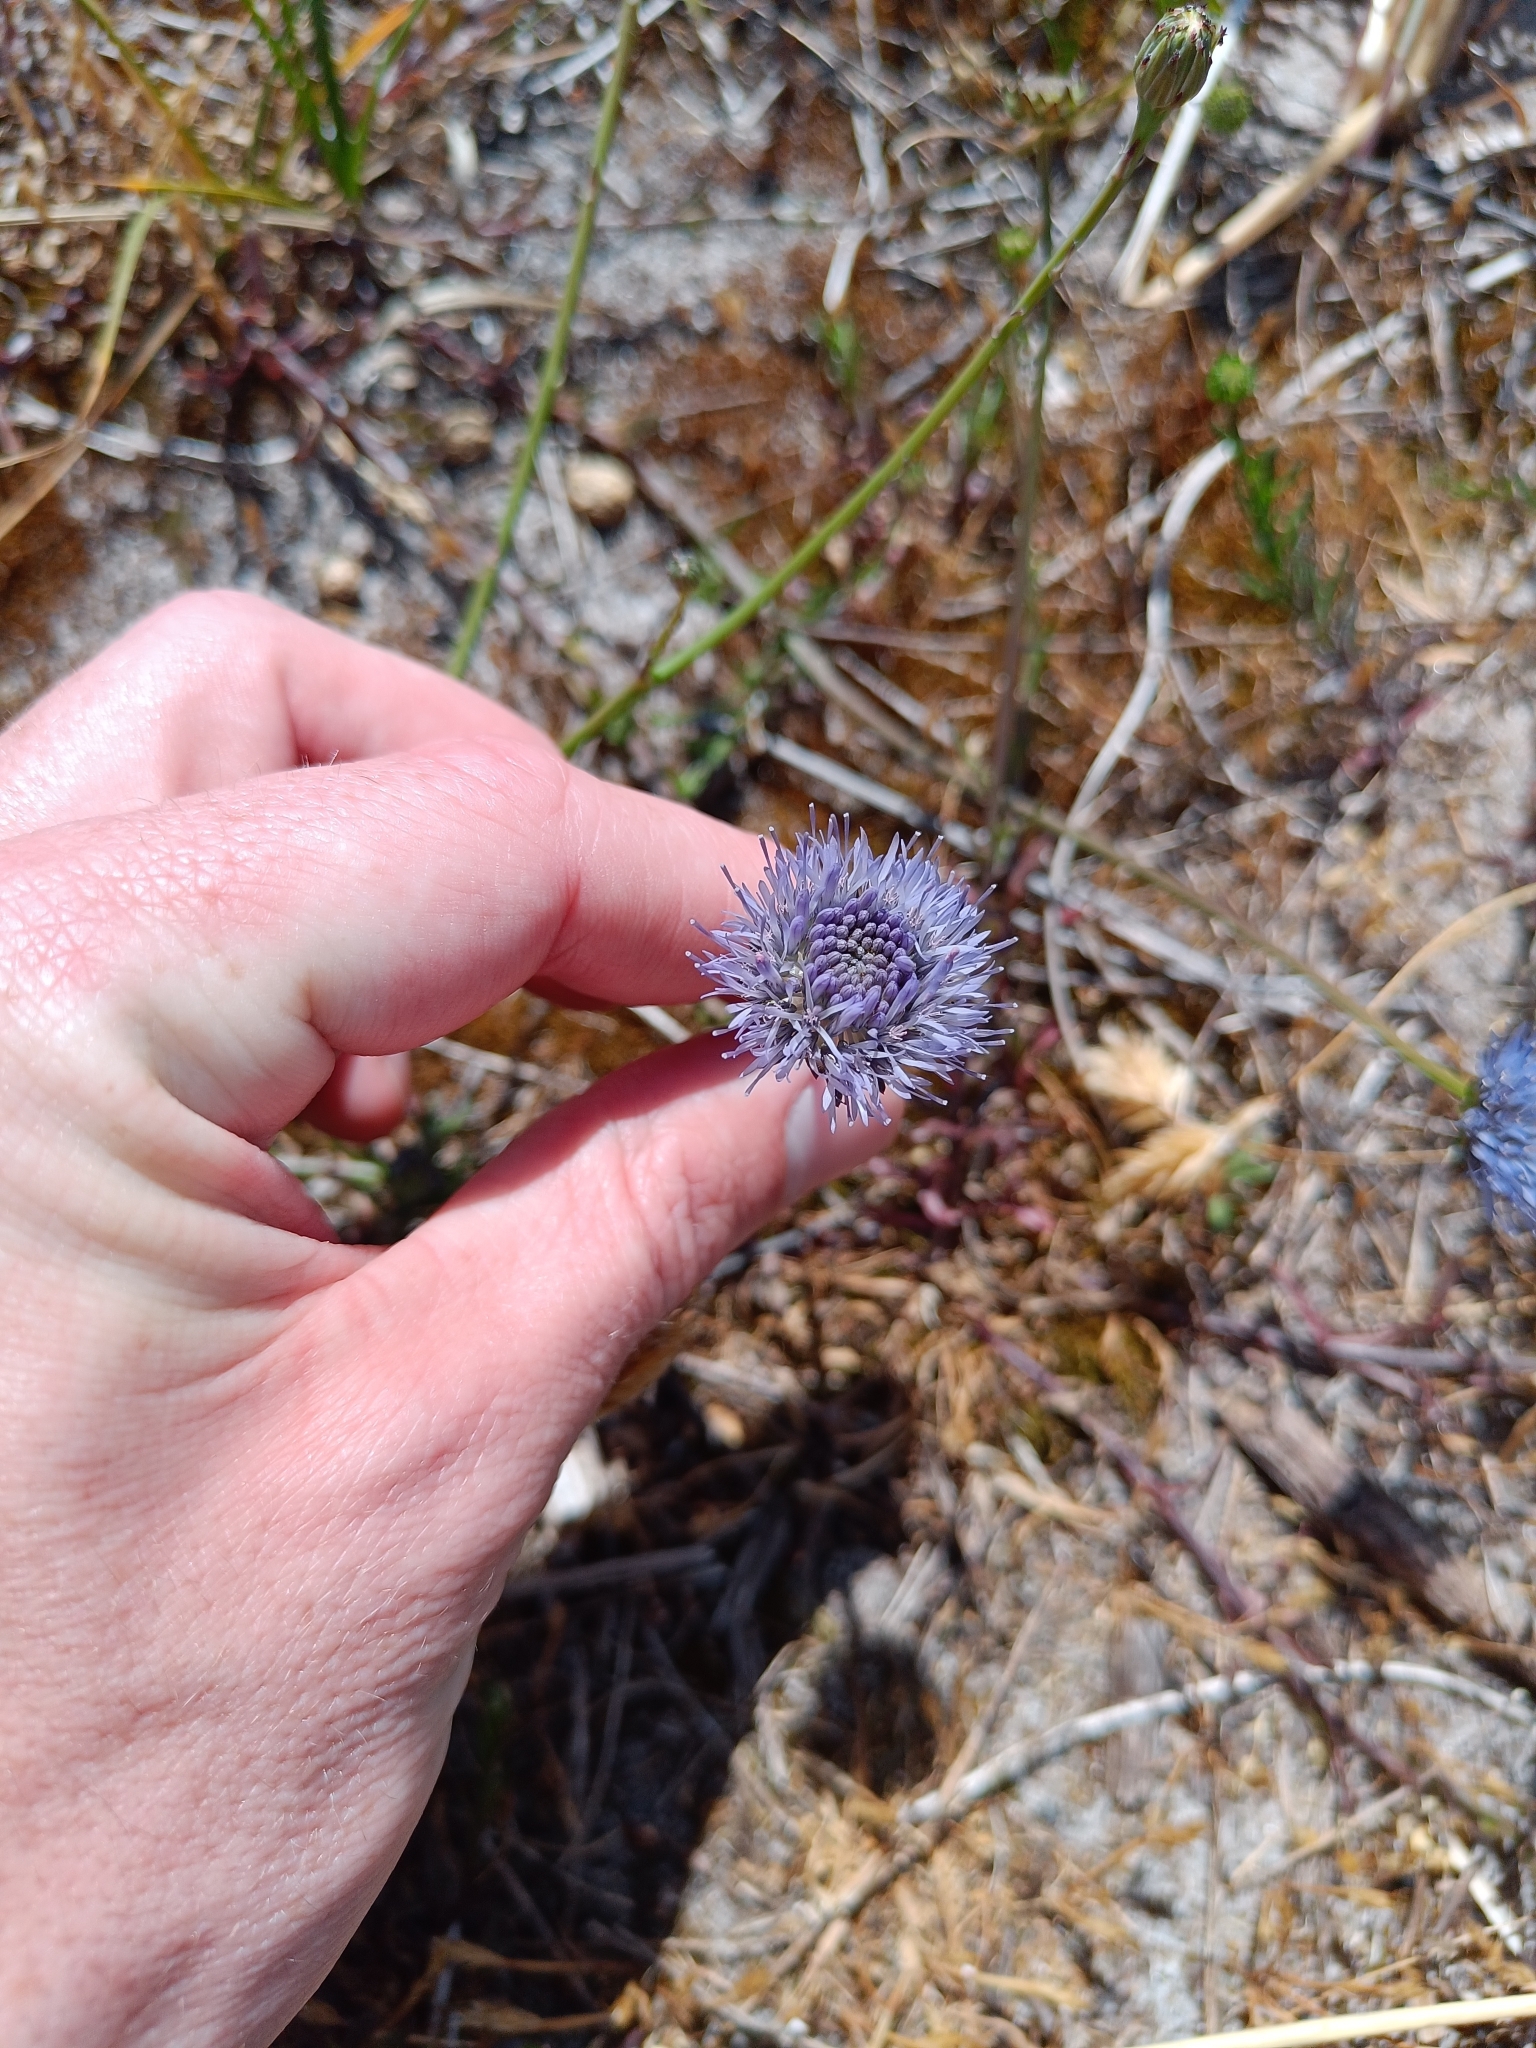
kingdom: Plantae
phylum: Tracheophyta
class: Magnoliopsida
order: Asterales
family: Campanulaceae
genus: Jasione
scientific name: Jasione montana
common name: Sheep's-bit
